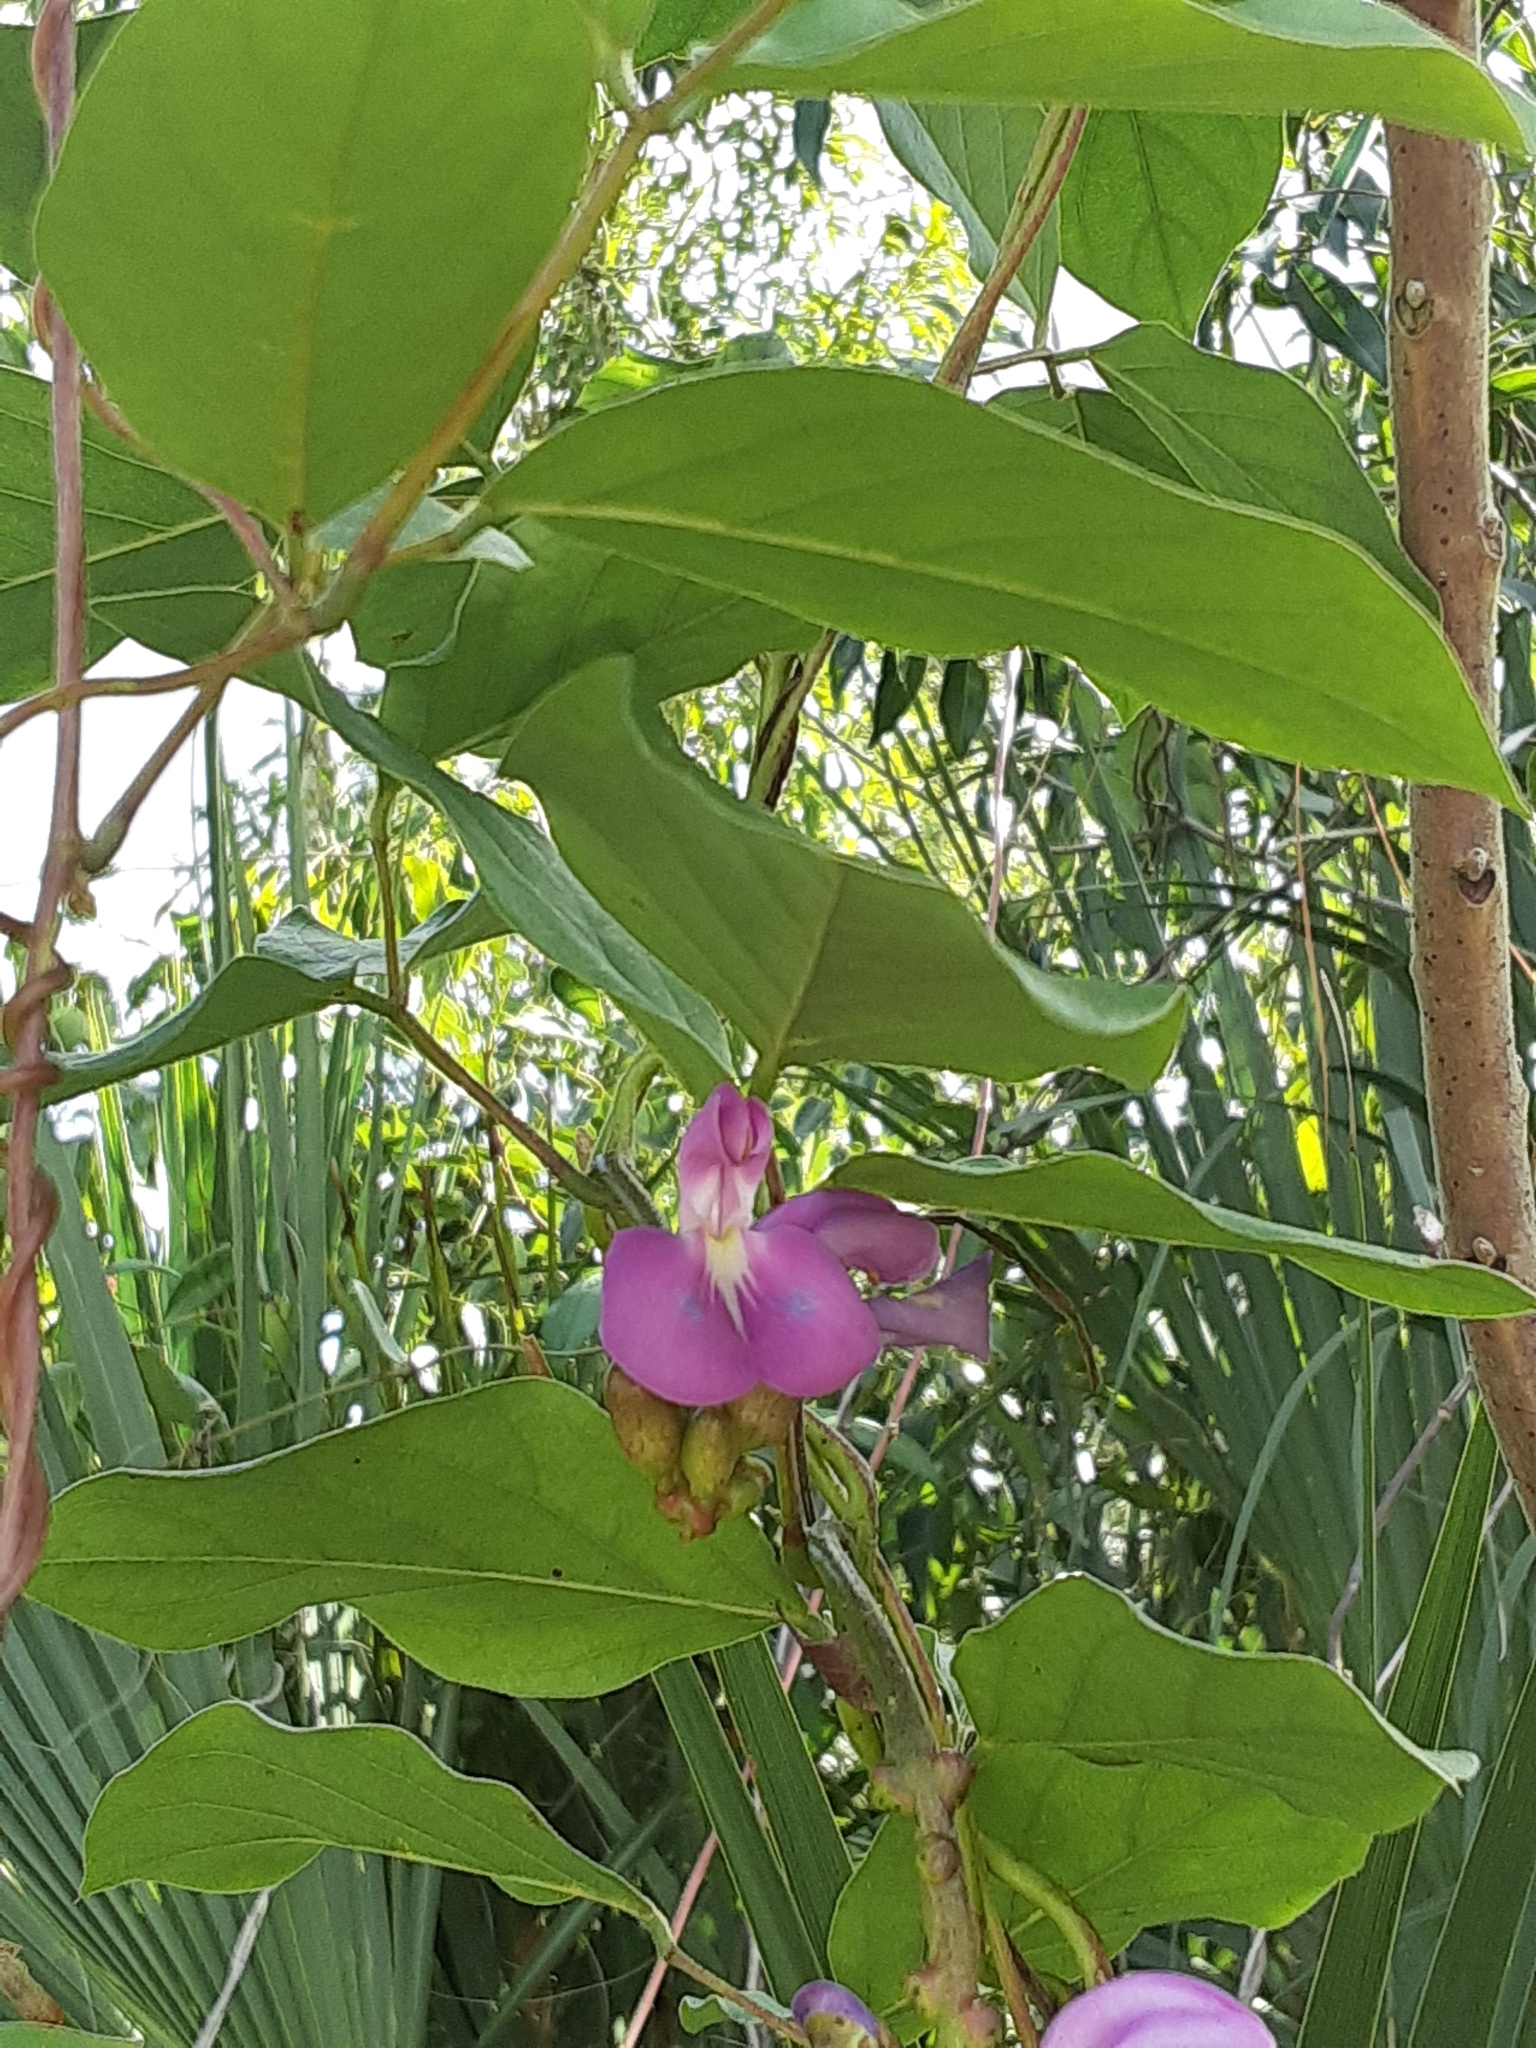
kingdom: Plantae
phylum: Tracheophyta
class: Magnoliopsida
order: Fabales
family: Fabaceae
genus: Canavalia
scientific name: Canavalia rosea
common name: Beach-bean
